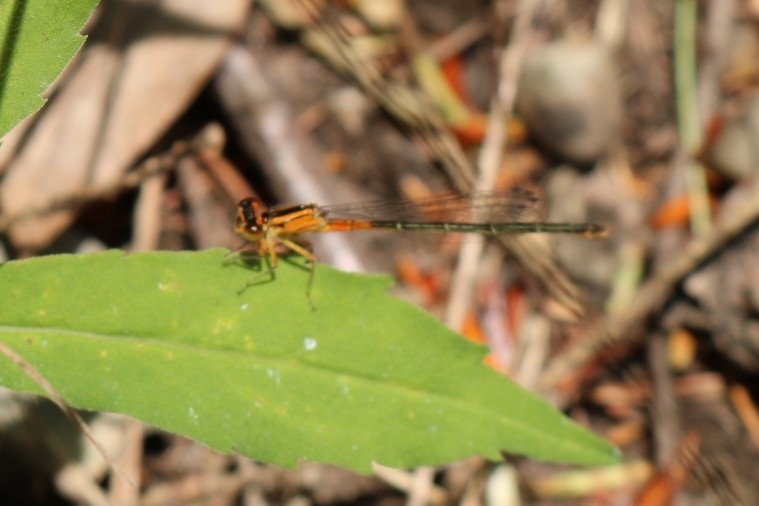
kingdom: Animalia
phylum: Arthropoda
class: Insecta
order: Odonata
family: Coenagrionidae
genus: Ischnura
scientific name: Ischnura verticalis
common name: Eastern forktail
